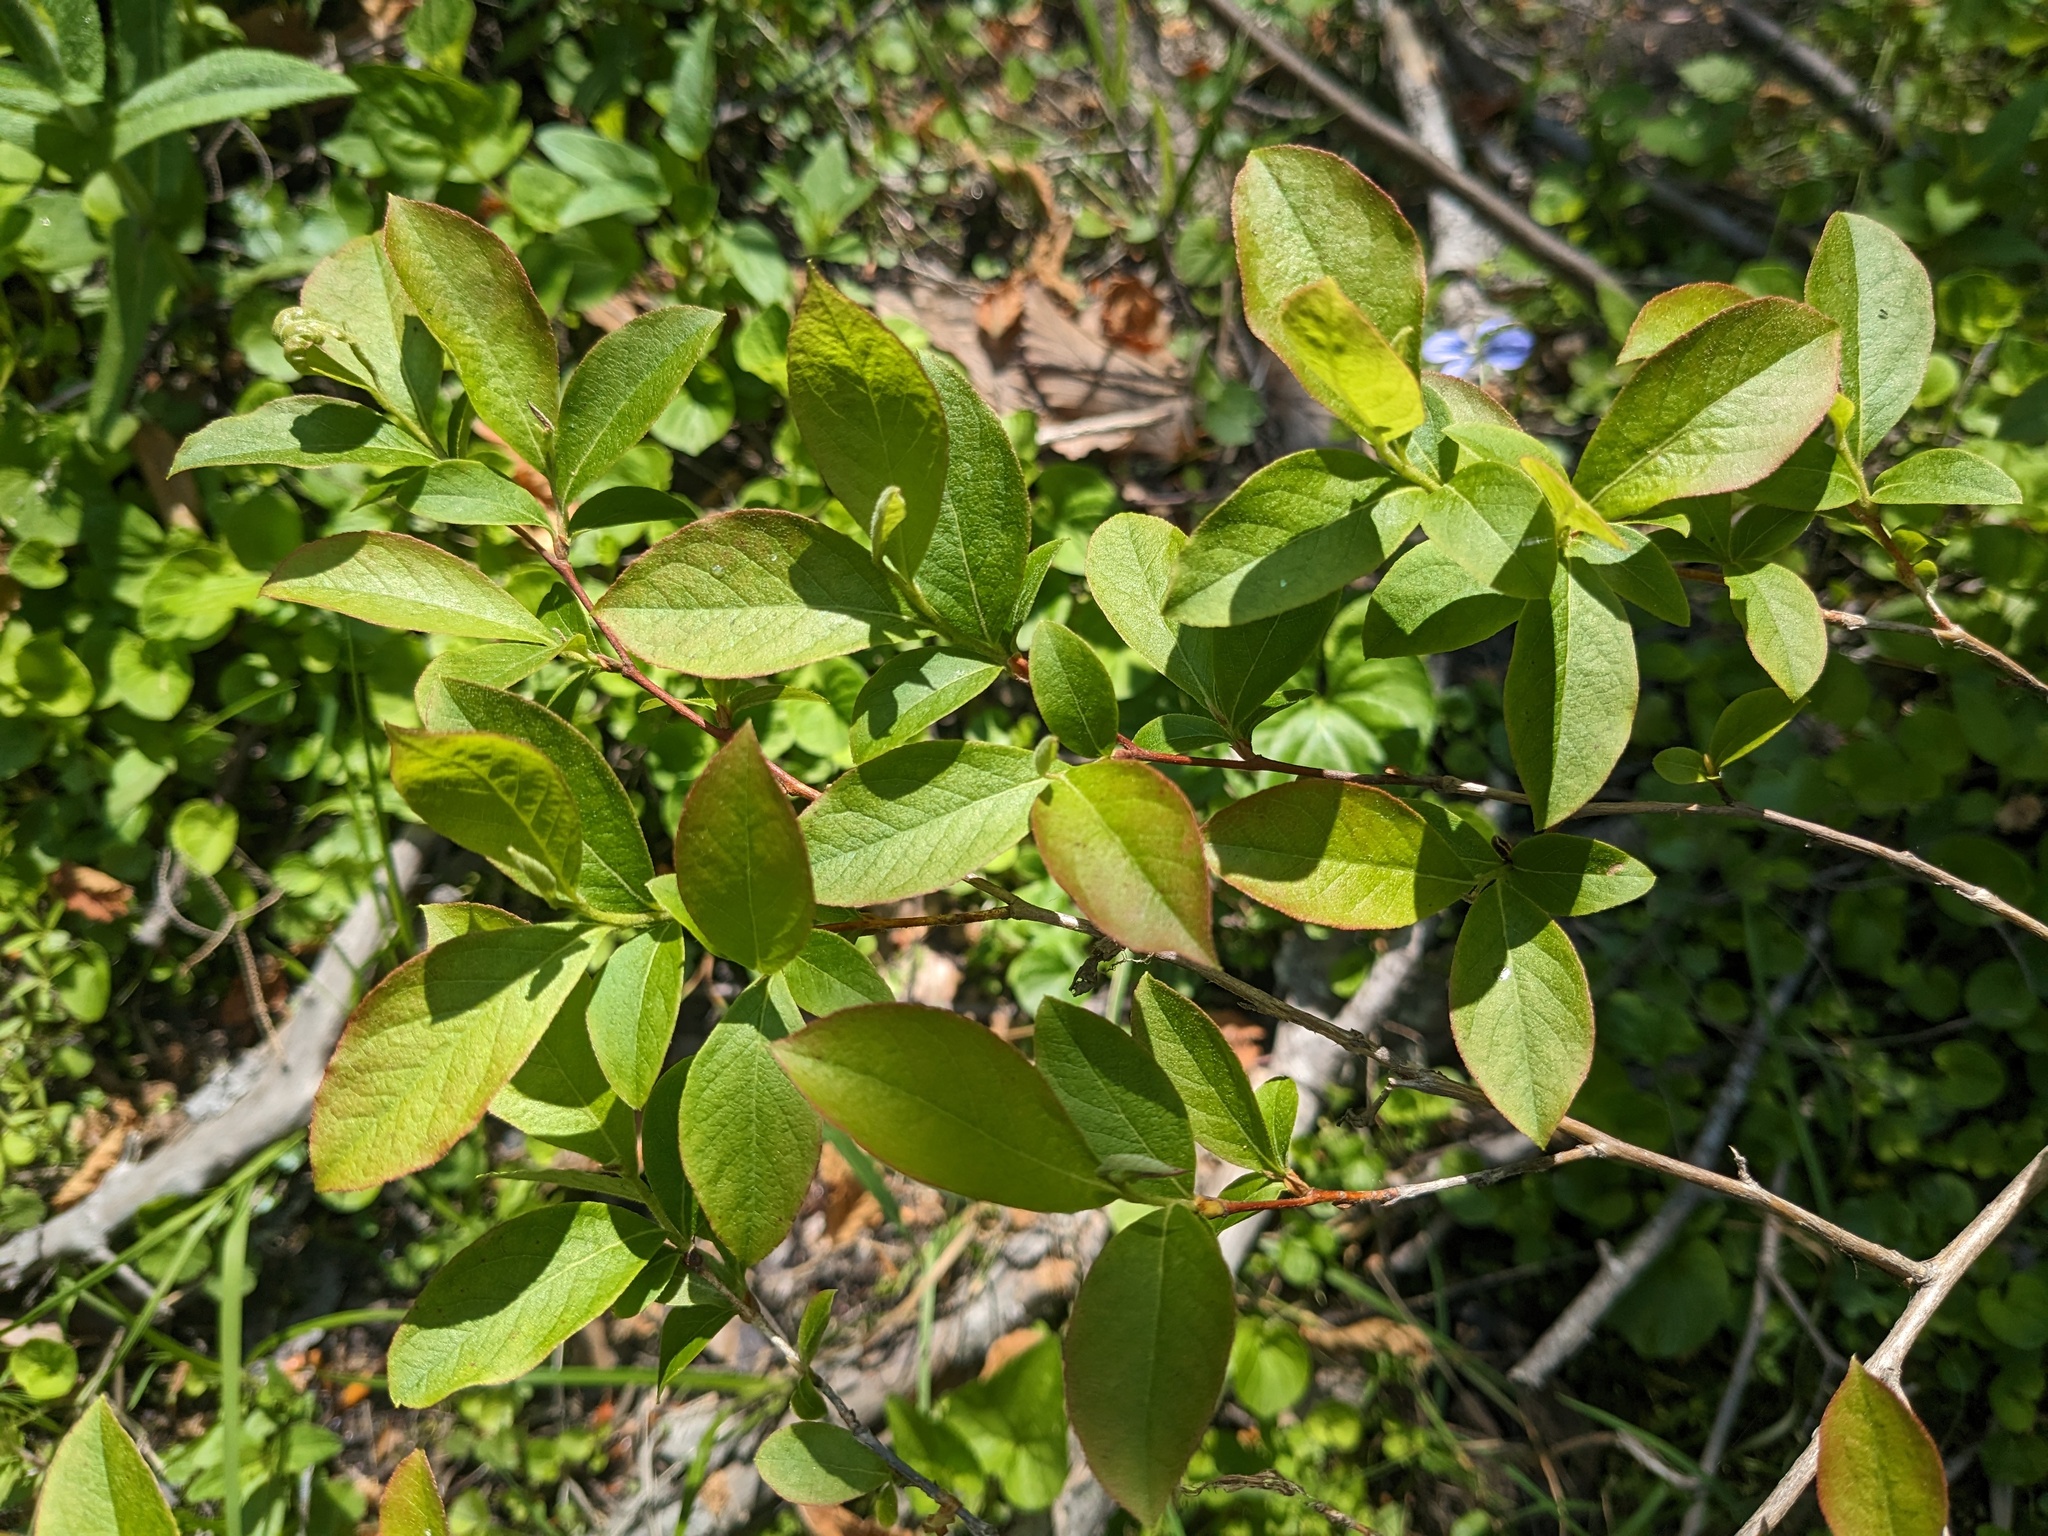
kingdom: Plantae
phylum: Tracheophyta
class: Magnoliopsida
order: Ericales
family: Ericaceae
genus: Lyonia
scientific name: Lyonia ligustrina
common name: Maleberry
